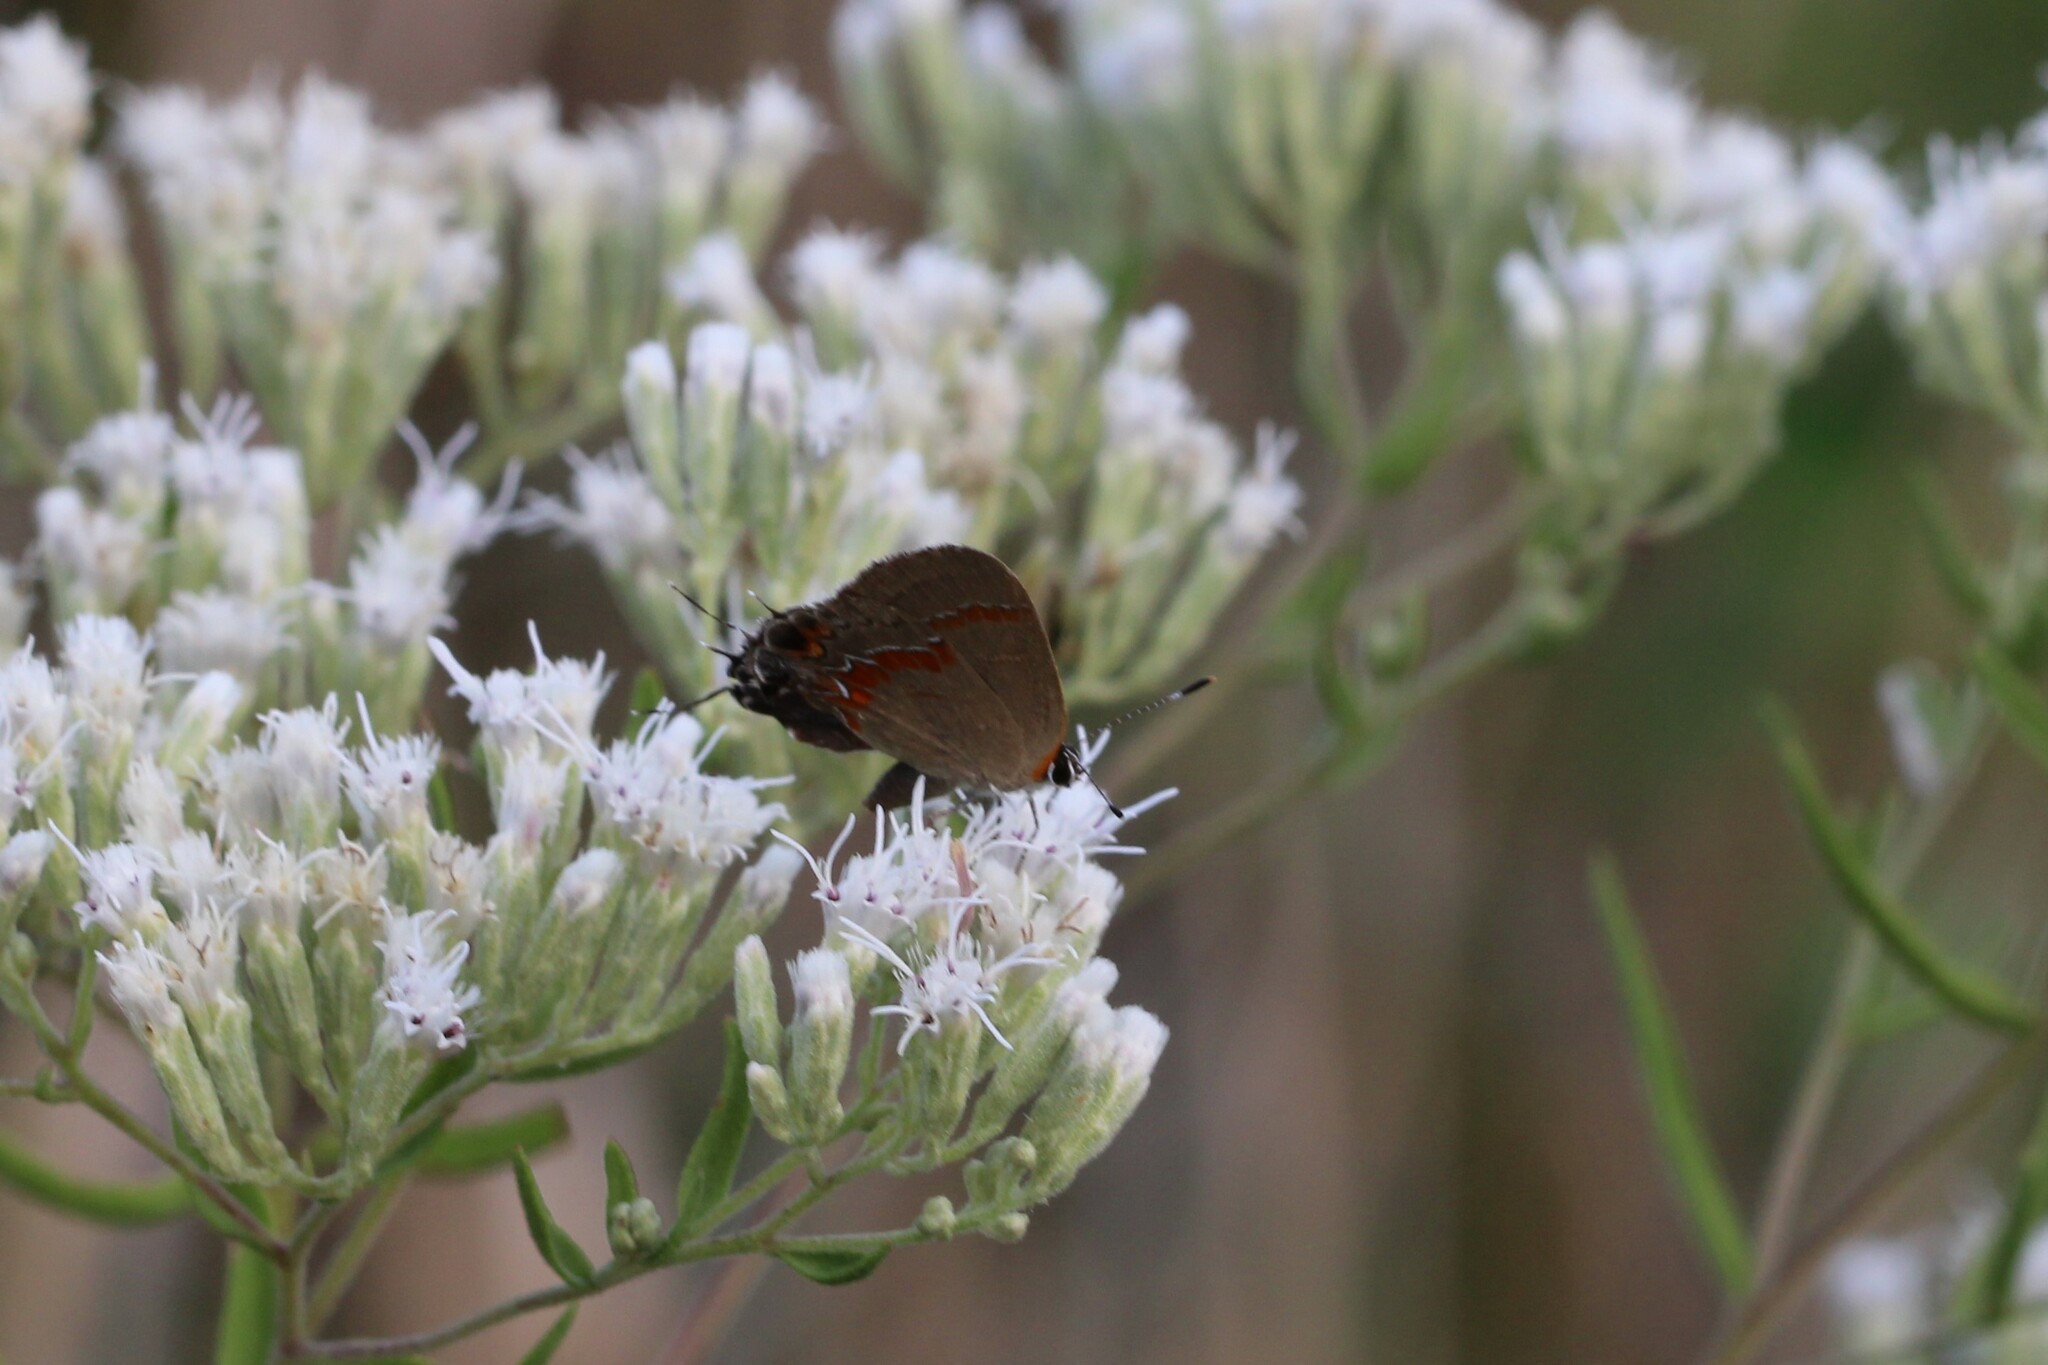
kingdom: Animalia
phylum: Arthropoda
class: Insecta
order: Lepidoptera
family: Lycaenidae
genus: Calycopis
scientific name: Calycopis cecrops
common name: Red-banded hairstreak
